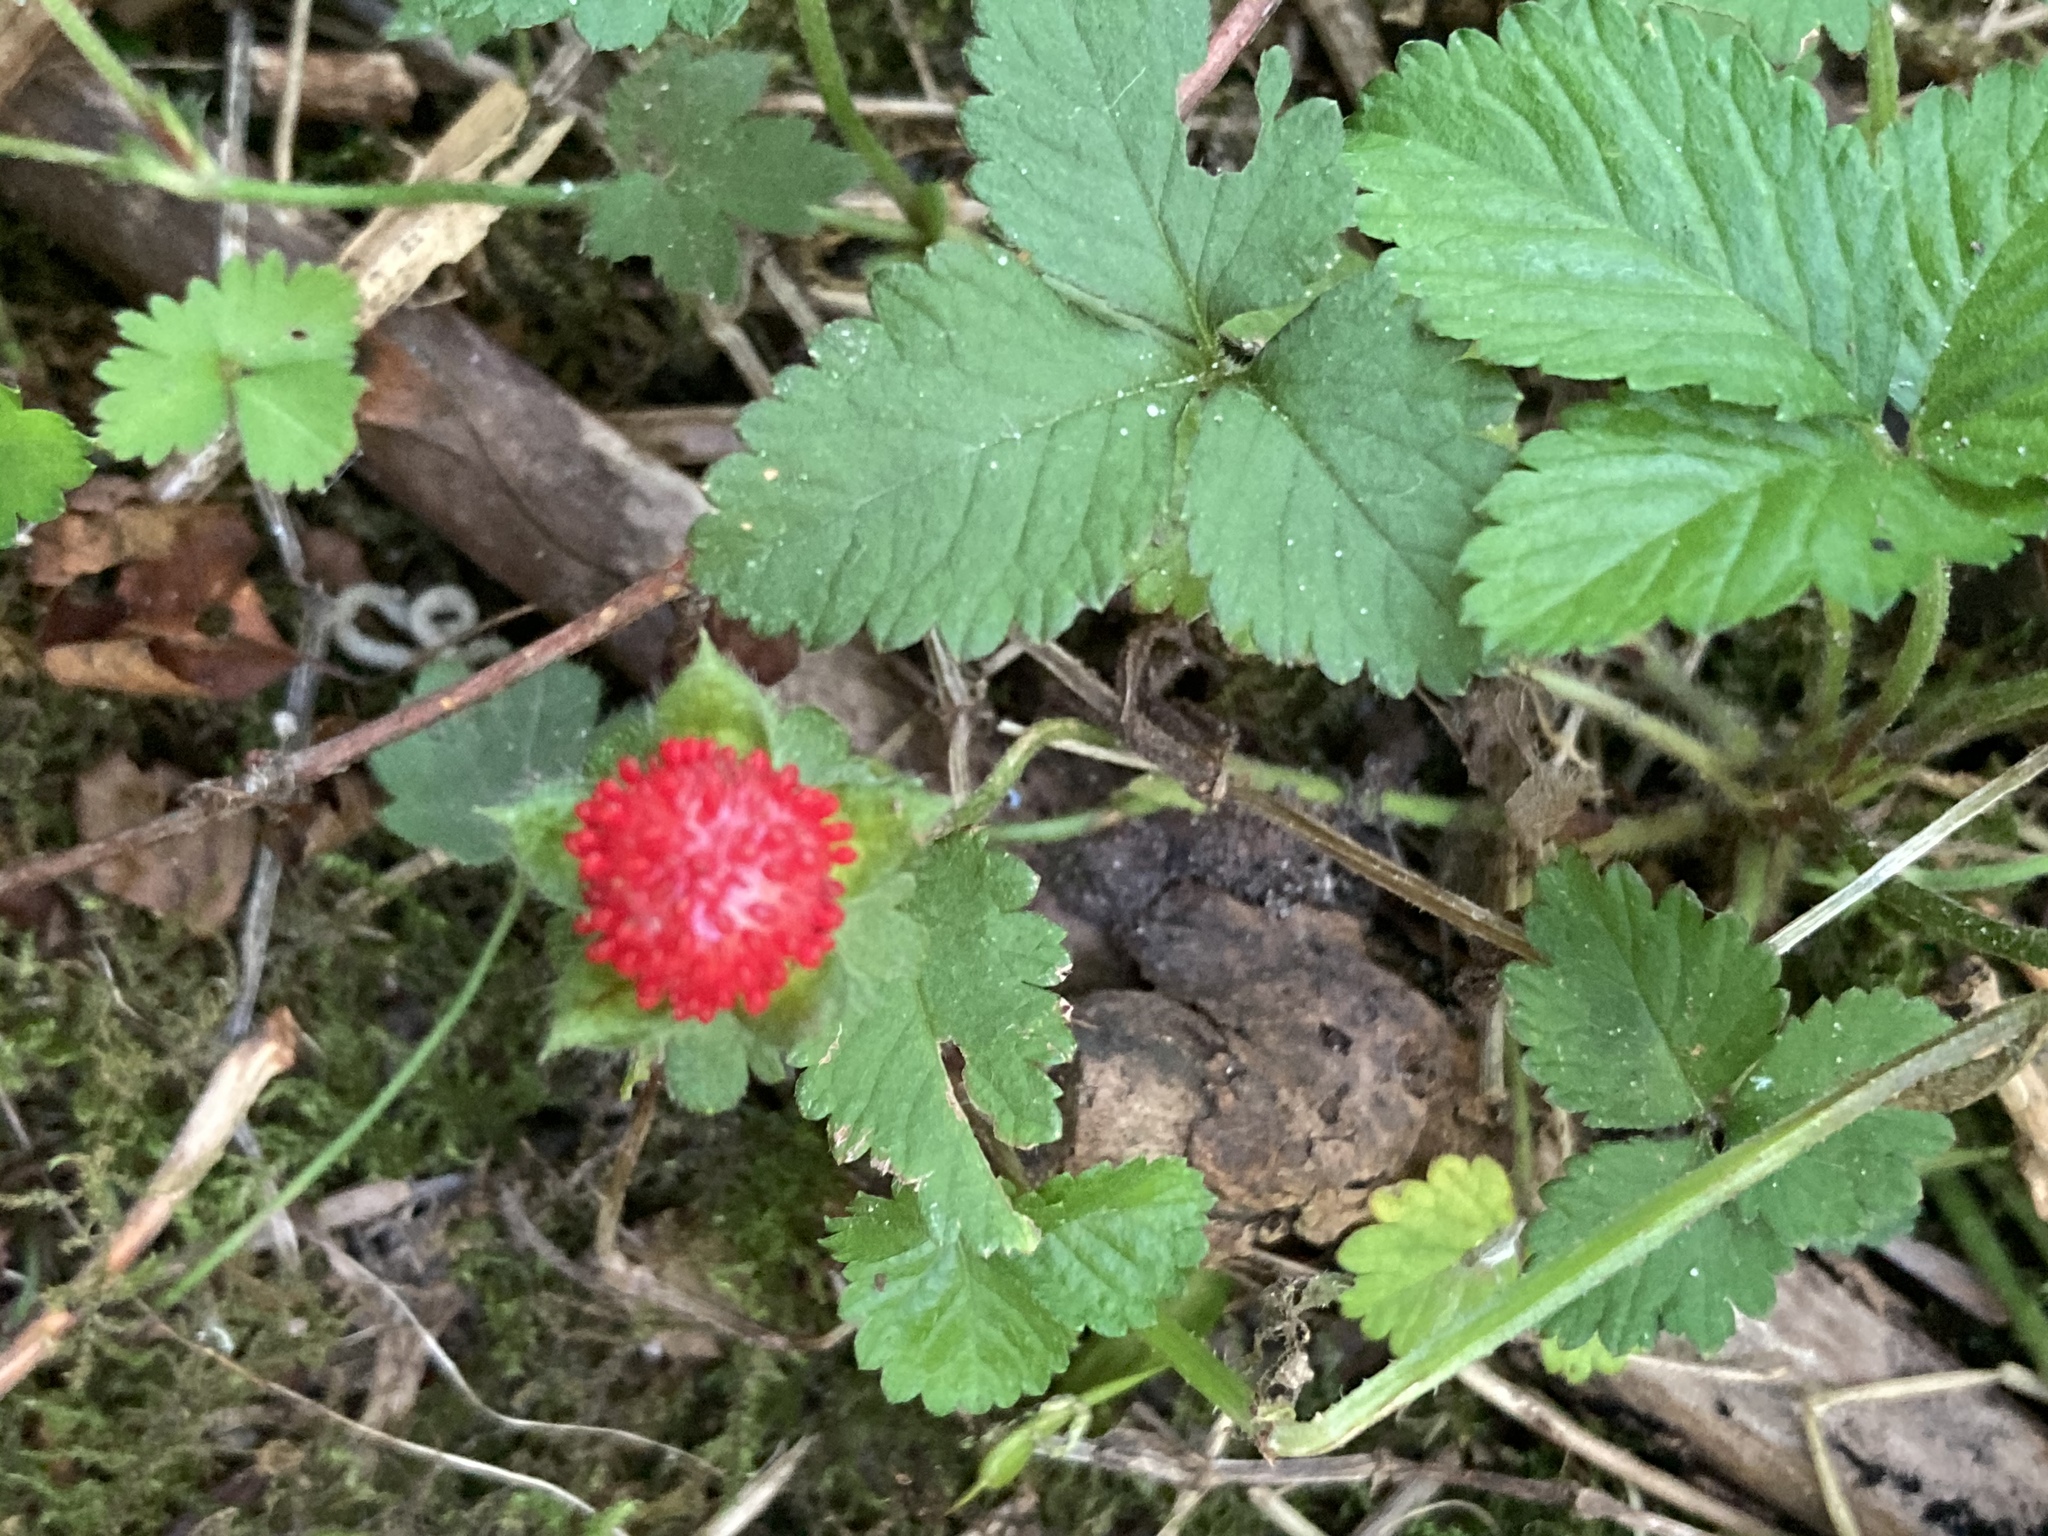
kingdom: Plantae
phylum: Tracheophyta
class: Magnoliopsida
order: Rosales
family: Rosaceae
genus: Potentilla
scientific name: Potentilla indica
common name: Yellow-flowered strawberry
